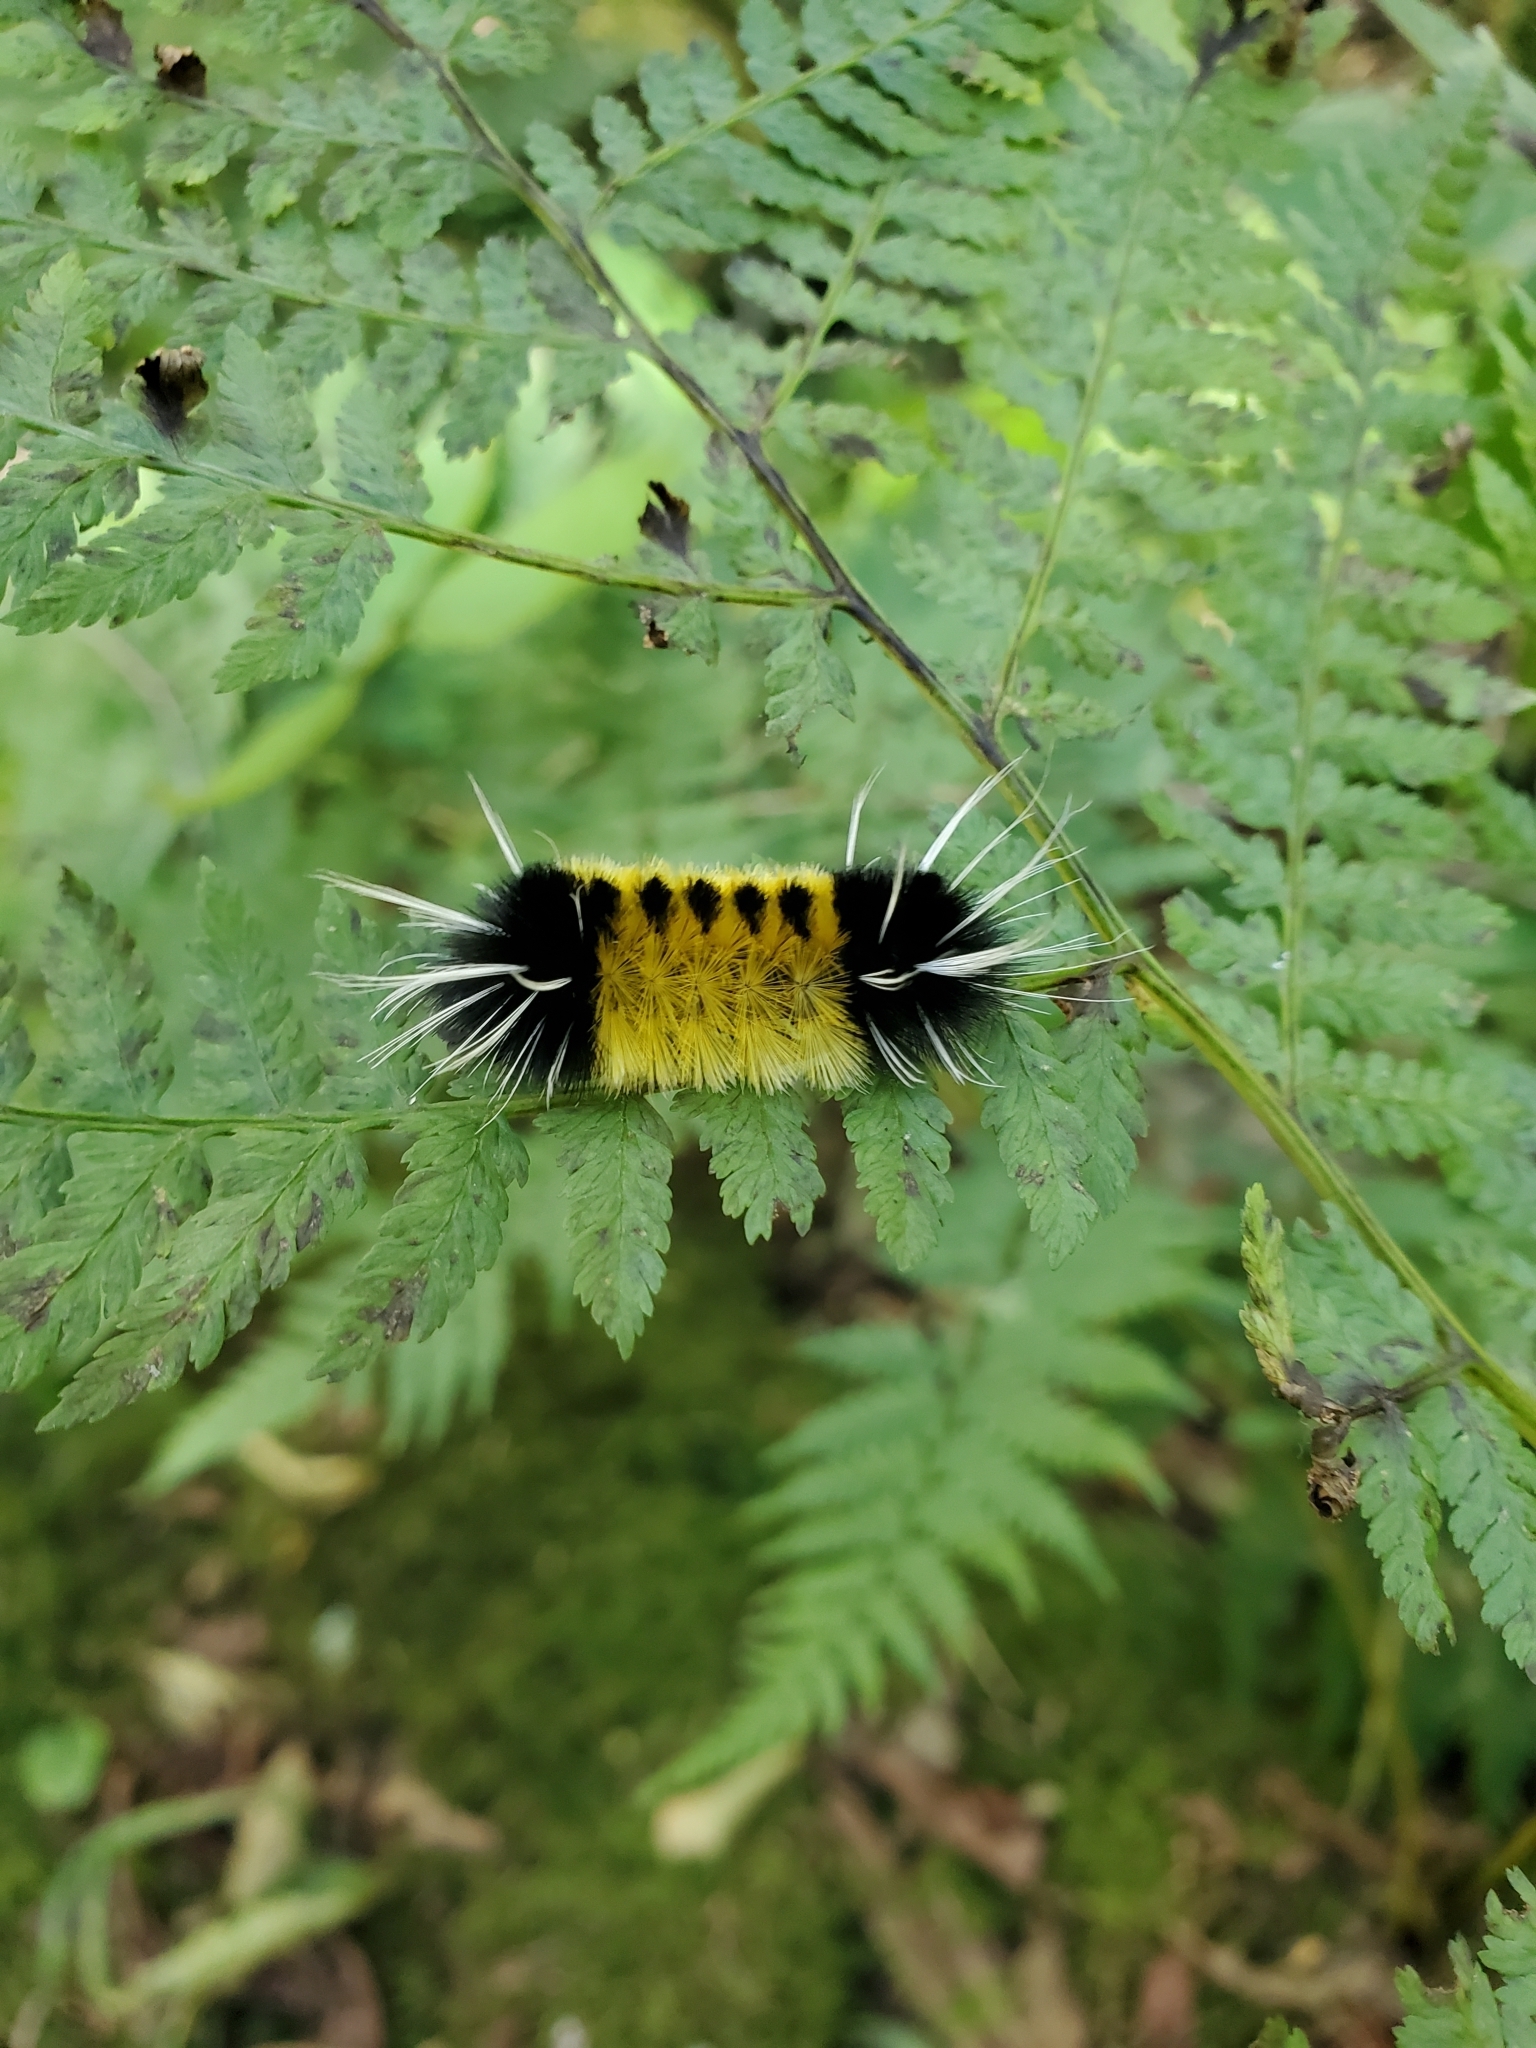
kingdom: Animalia
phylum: Arthropoda
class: Insecta
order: Lepidoptera
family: Erebidae
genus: Lophocampa
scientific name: Lophocampa maculata
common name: Spotted tussock moth
